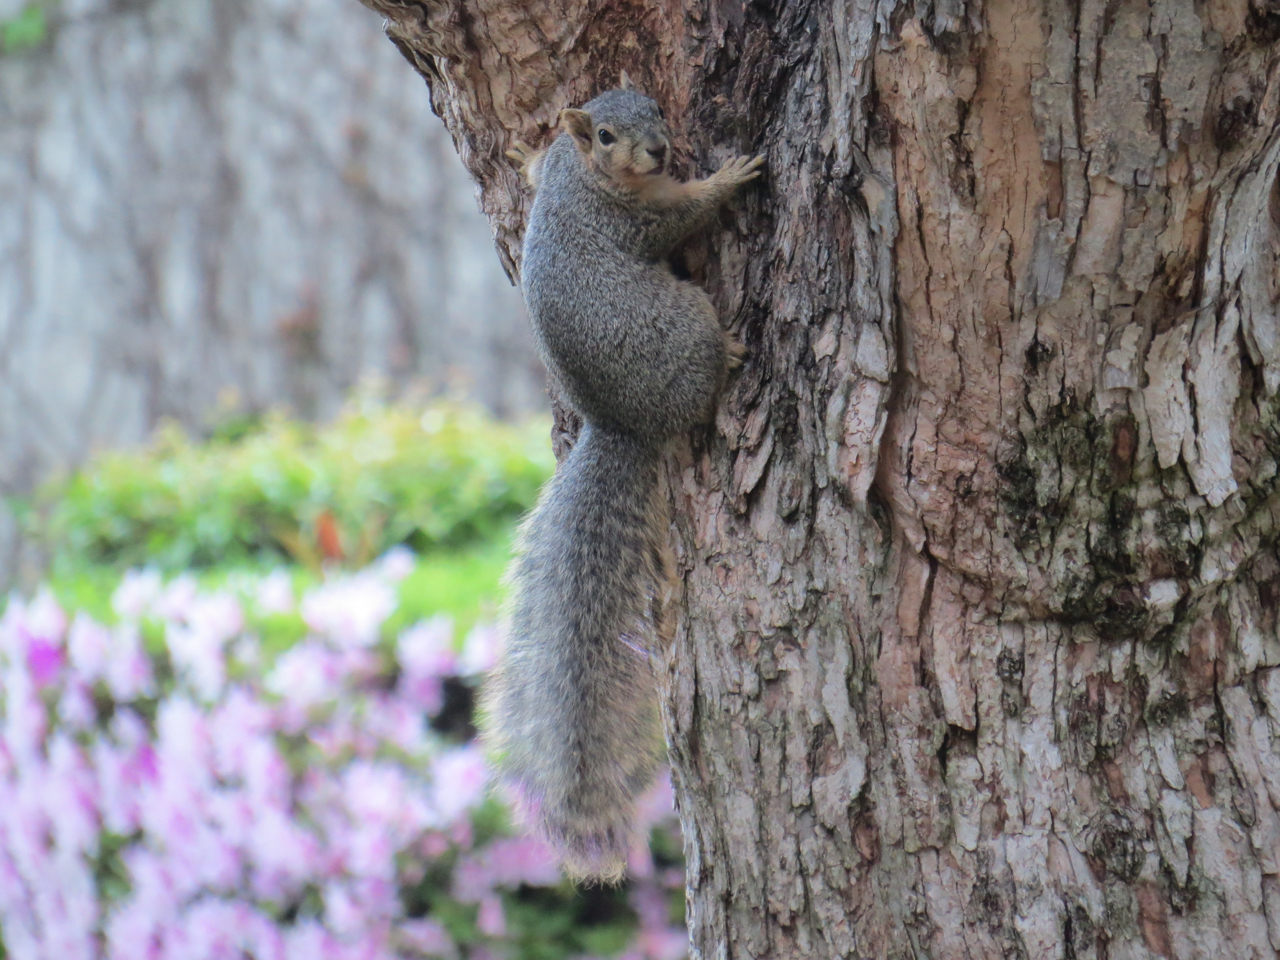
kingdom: Animalia
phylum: Chordata
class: Mammalia
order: Rodentia
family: Sciuridae
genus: Sciurus
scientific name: Sciurus niger
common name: Fox squirrel
